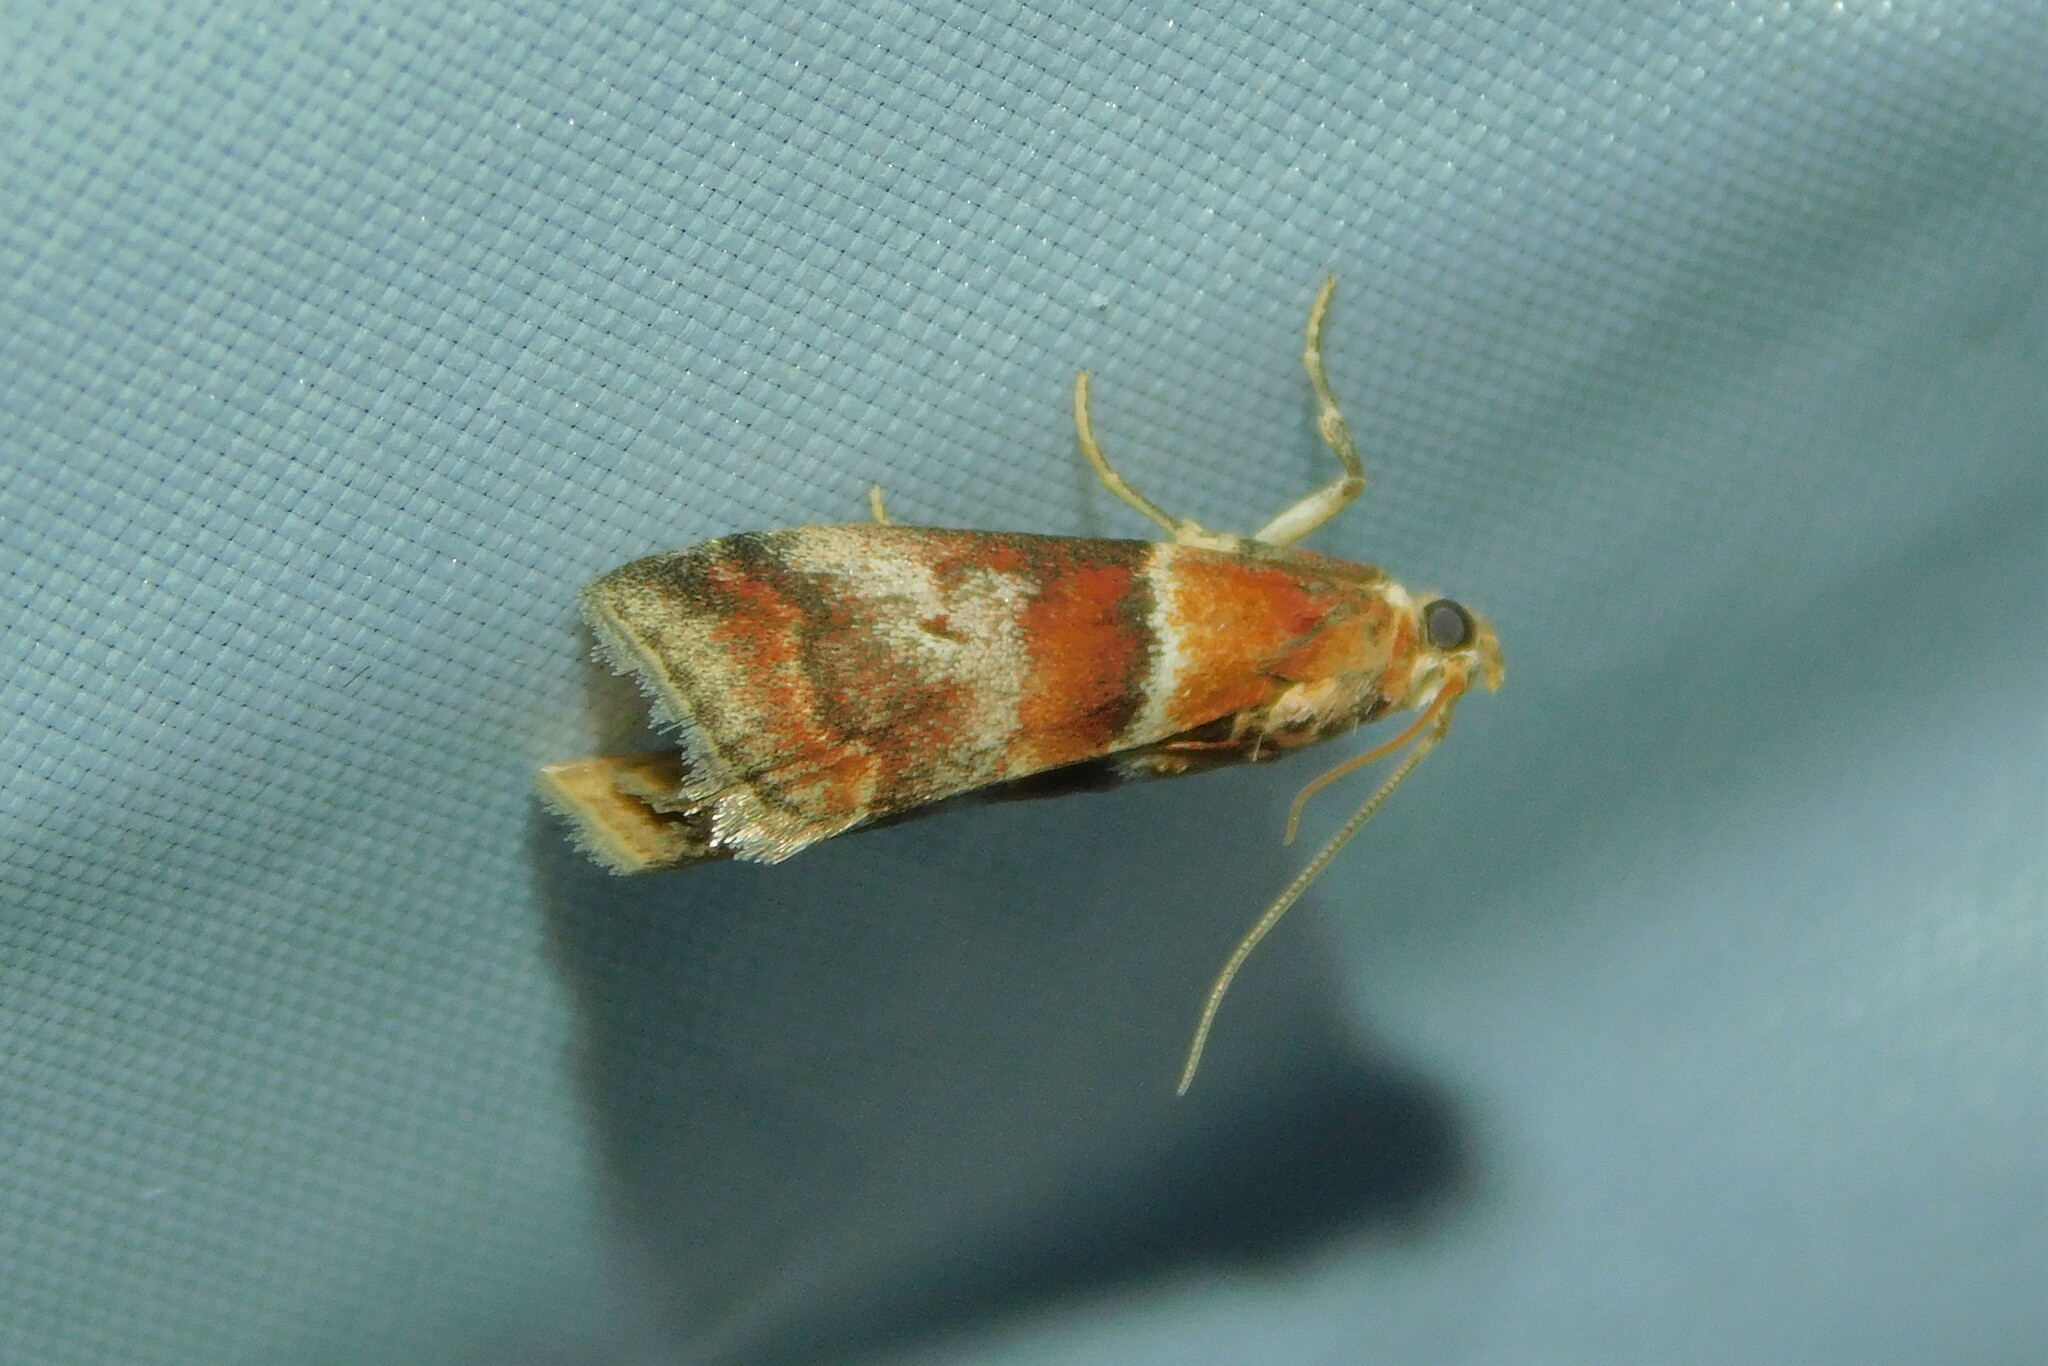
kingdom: Animalia
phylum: Arthropoda
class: Insecta
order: Lepidoptera
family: Pyralidae
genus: Acrobasis
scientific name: Acrobasis repandana
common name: Warted knot-horn
